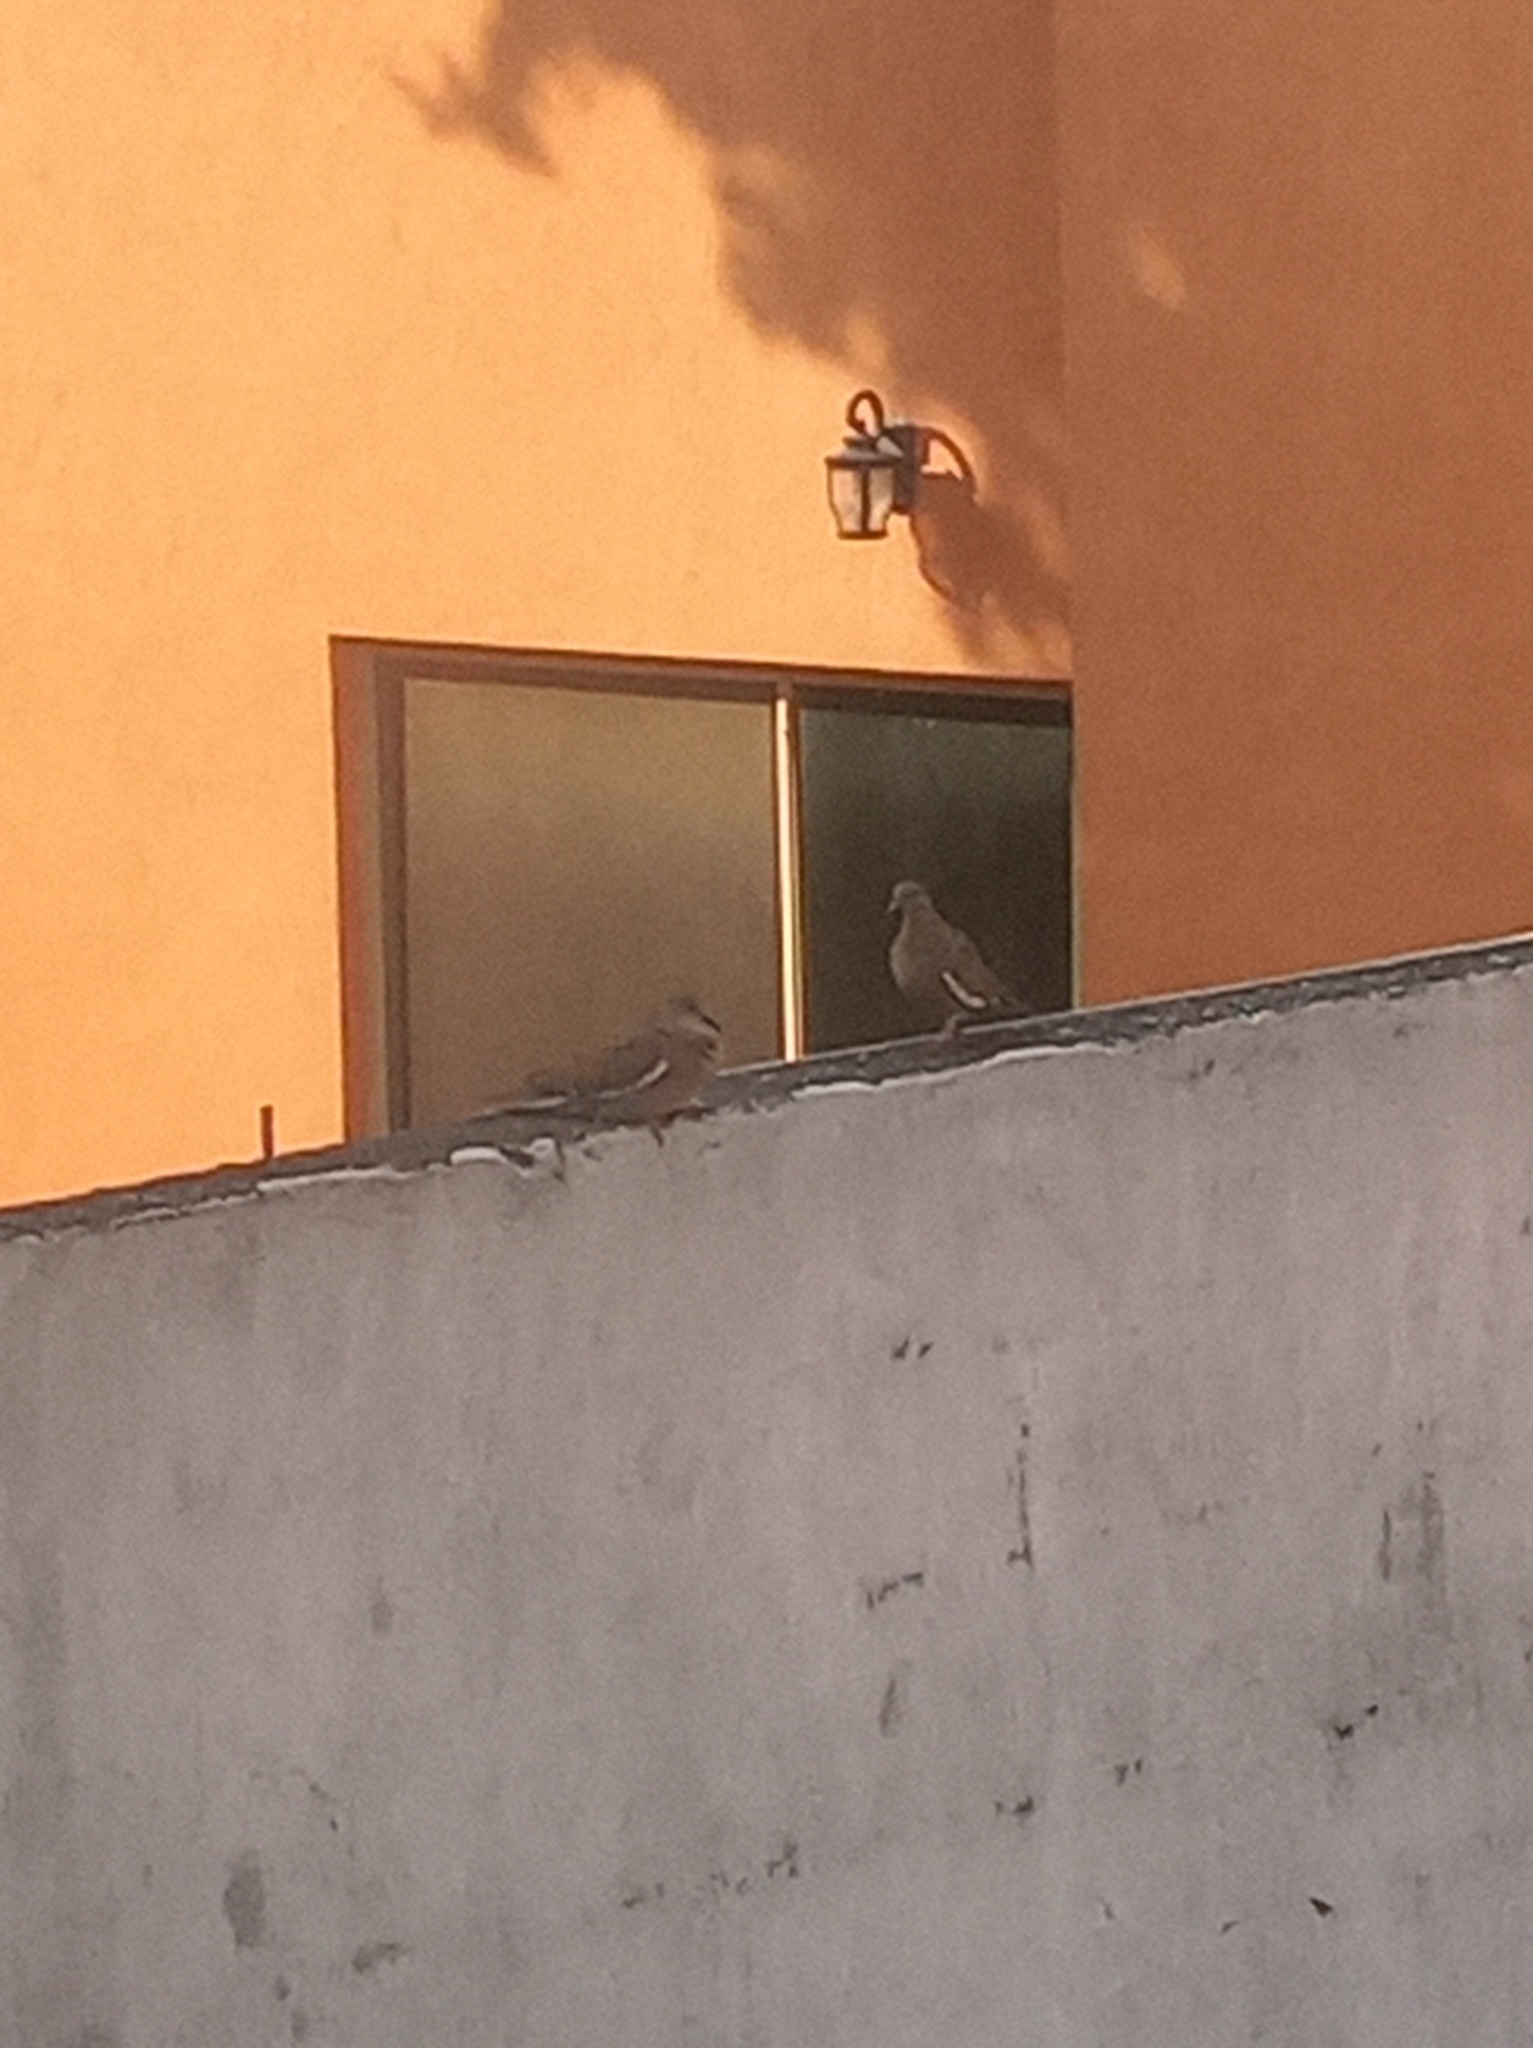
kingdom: Animalia
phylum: Chordata
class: Aves
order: Columbiformes
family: Columbidae
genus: Zenaida
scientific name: Zenaida asiatica
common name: White-winged dove
